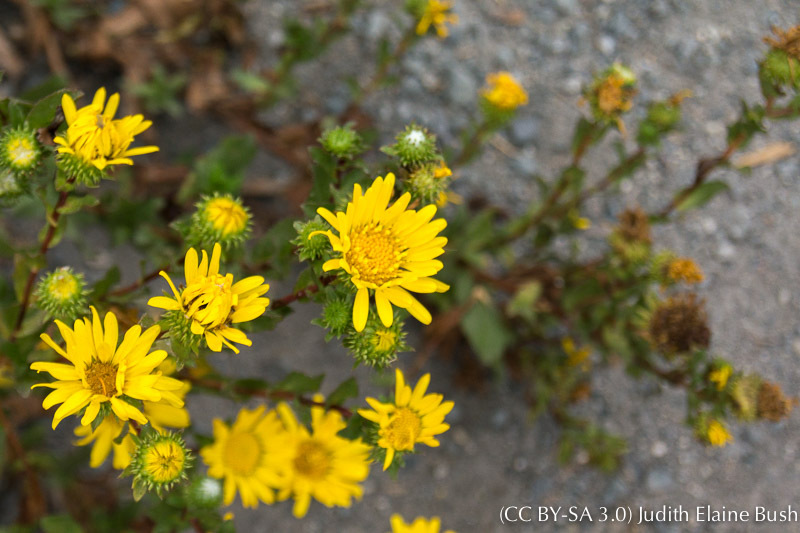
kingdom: Plantae
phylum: Tracheophyta
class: Magnoliopsida
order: Asterales
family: Asteraceae
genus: Grindelia
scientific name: Grindelia hirsutula
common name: Hairy gumweed
